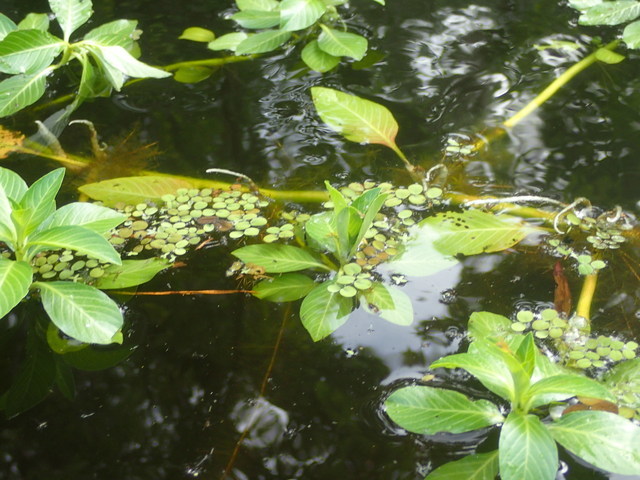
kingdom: Plantae
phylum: Tracheophyta
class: Magnoliopsida
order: Myrtales
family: Onagraceae
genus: Ludwigia
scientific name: Ludwigia peploides
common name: Floating primrose-willow
